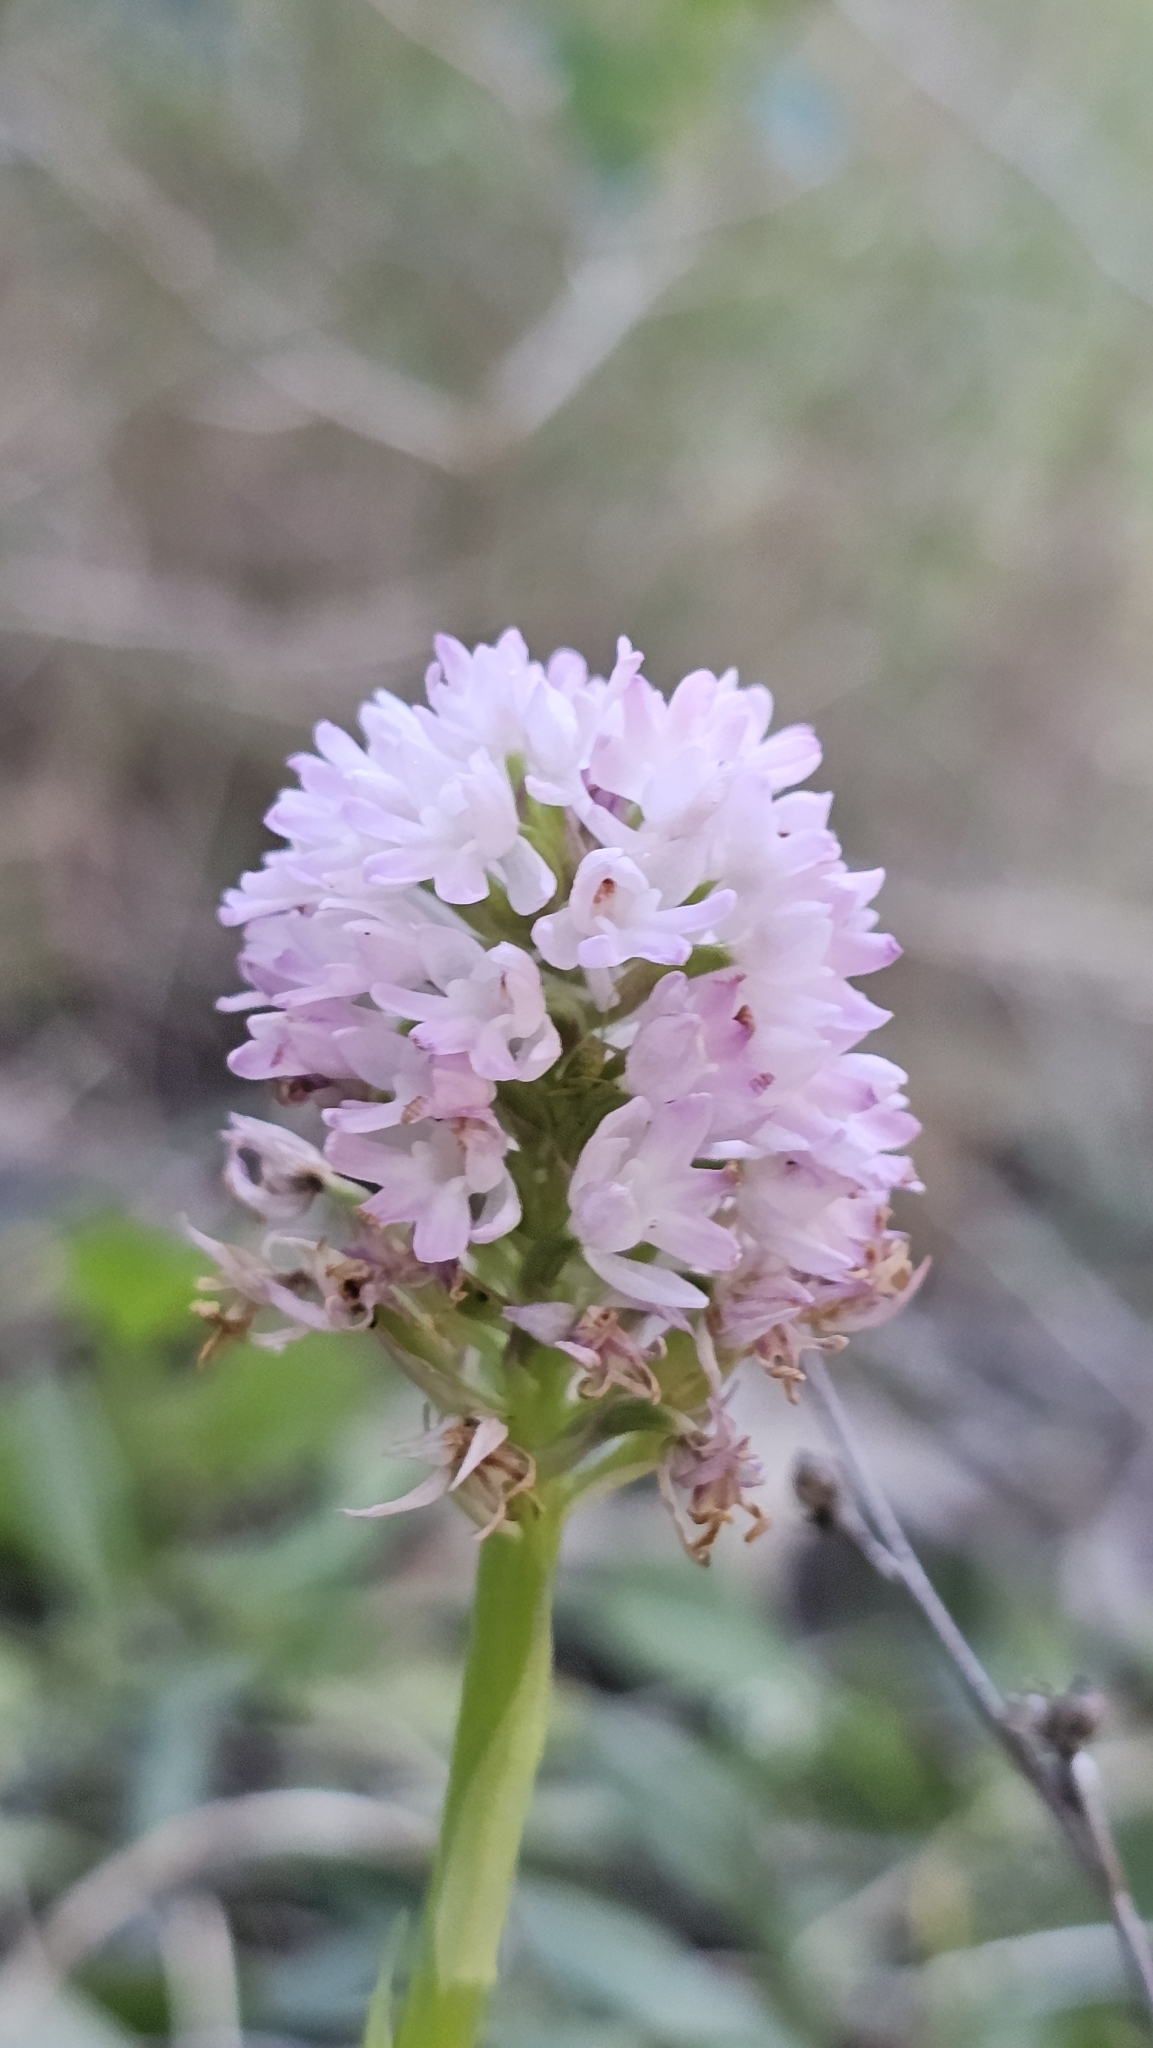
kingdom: Plantae
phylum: Tracheophyta
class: Liliopsida
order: Asparagales
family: Orchidaceae
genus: Anacamptis
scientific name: Anacamptis pyramidalis
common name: Pyramidal orchid
